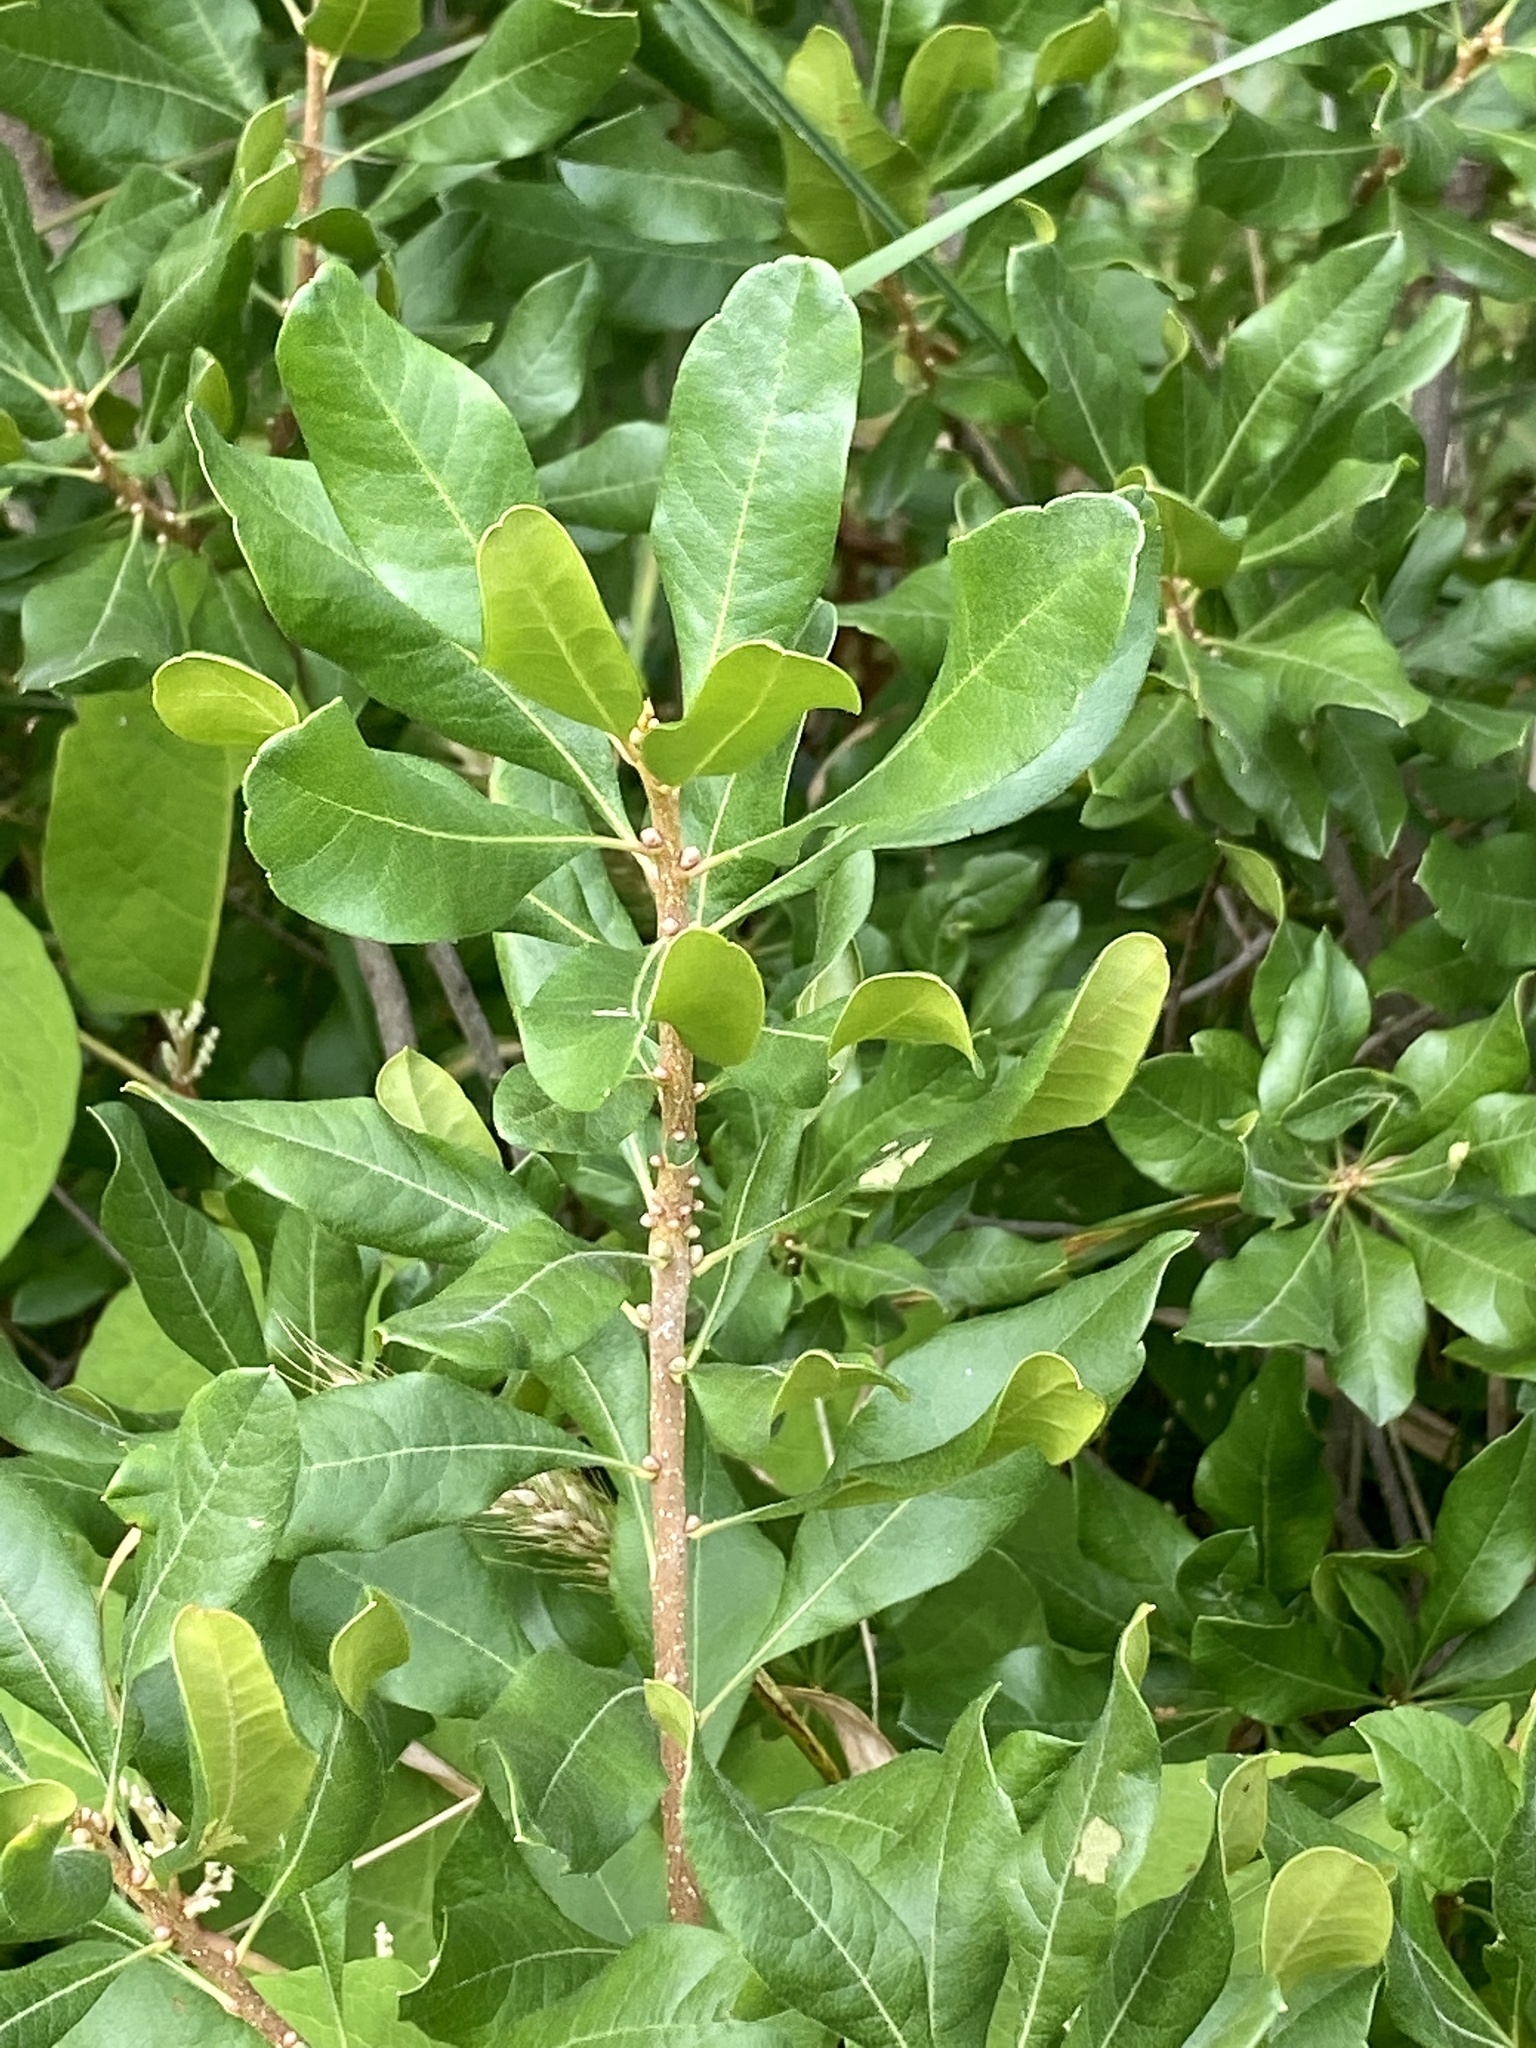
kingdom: Plantae
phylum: Tracheophyta
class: Magnoliopsida
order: Fagales
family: Myricaceae
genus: Morella
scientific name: Morella pensylvanica
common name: Northern bayberry
